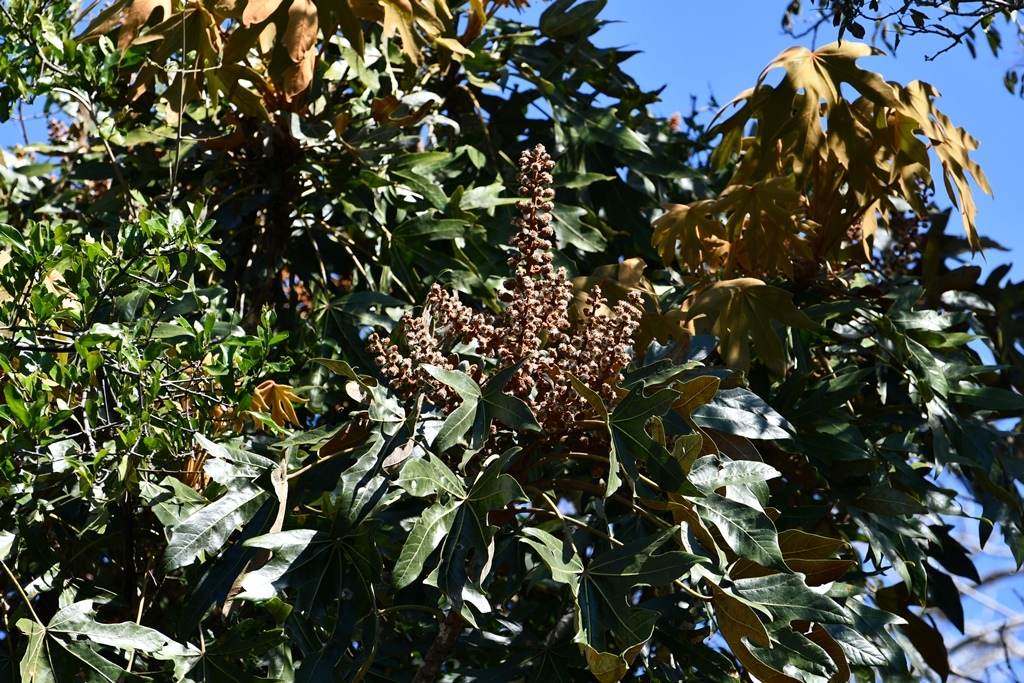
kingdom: Plantae
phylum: Tracheophyta
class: Magnoliopsida
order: Apiales
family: Araliaceae
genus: Oreopanax
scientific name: Oreopanax geminatus
